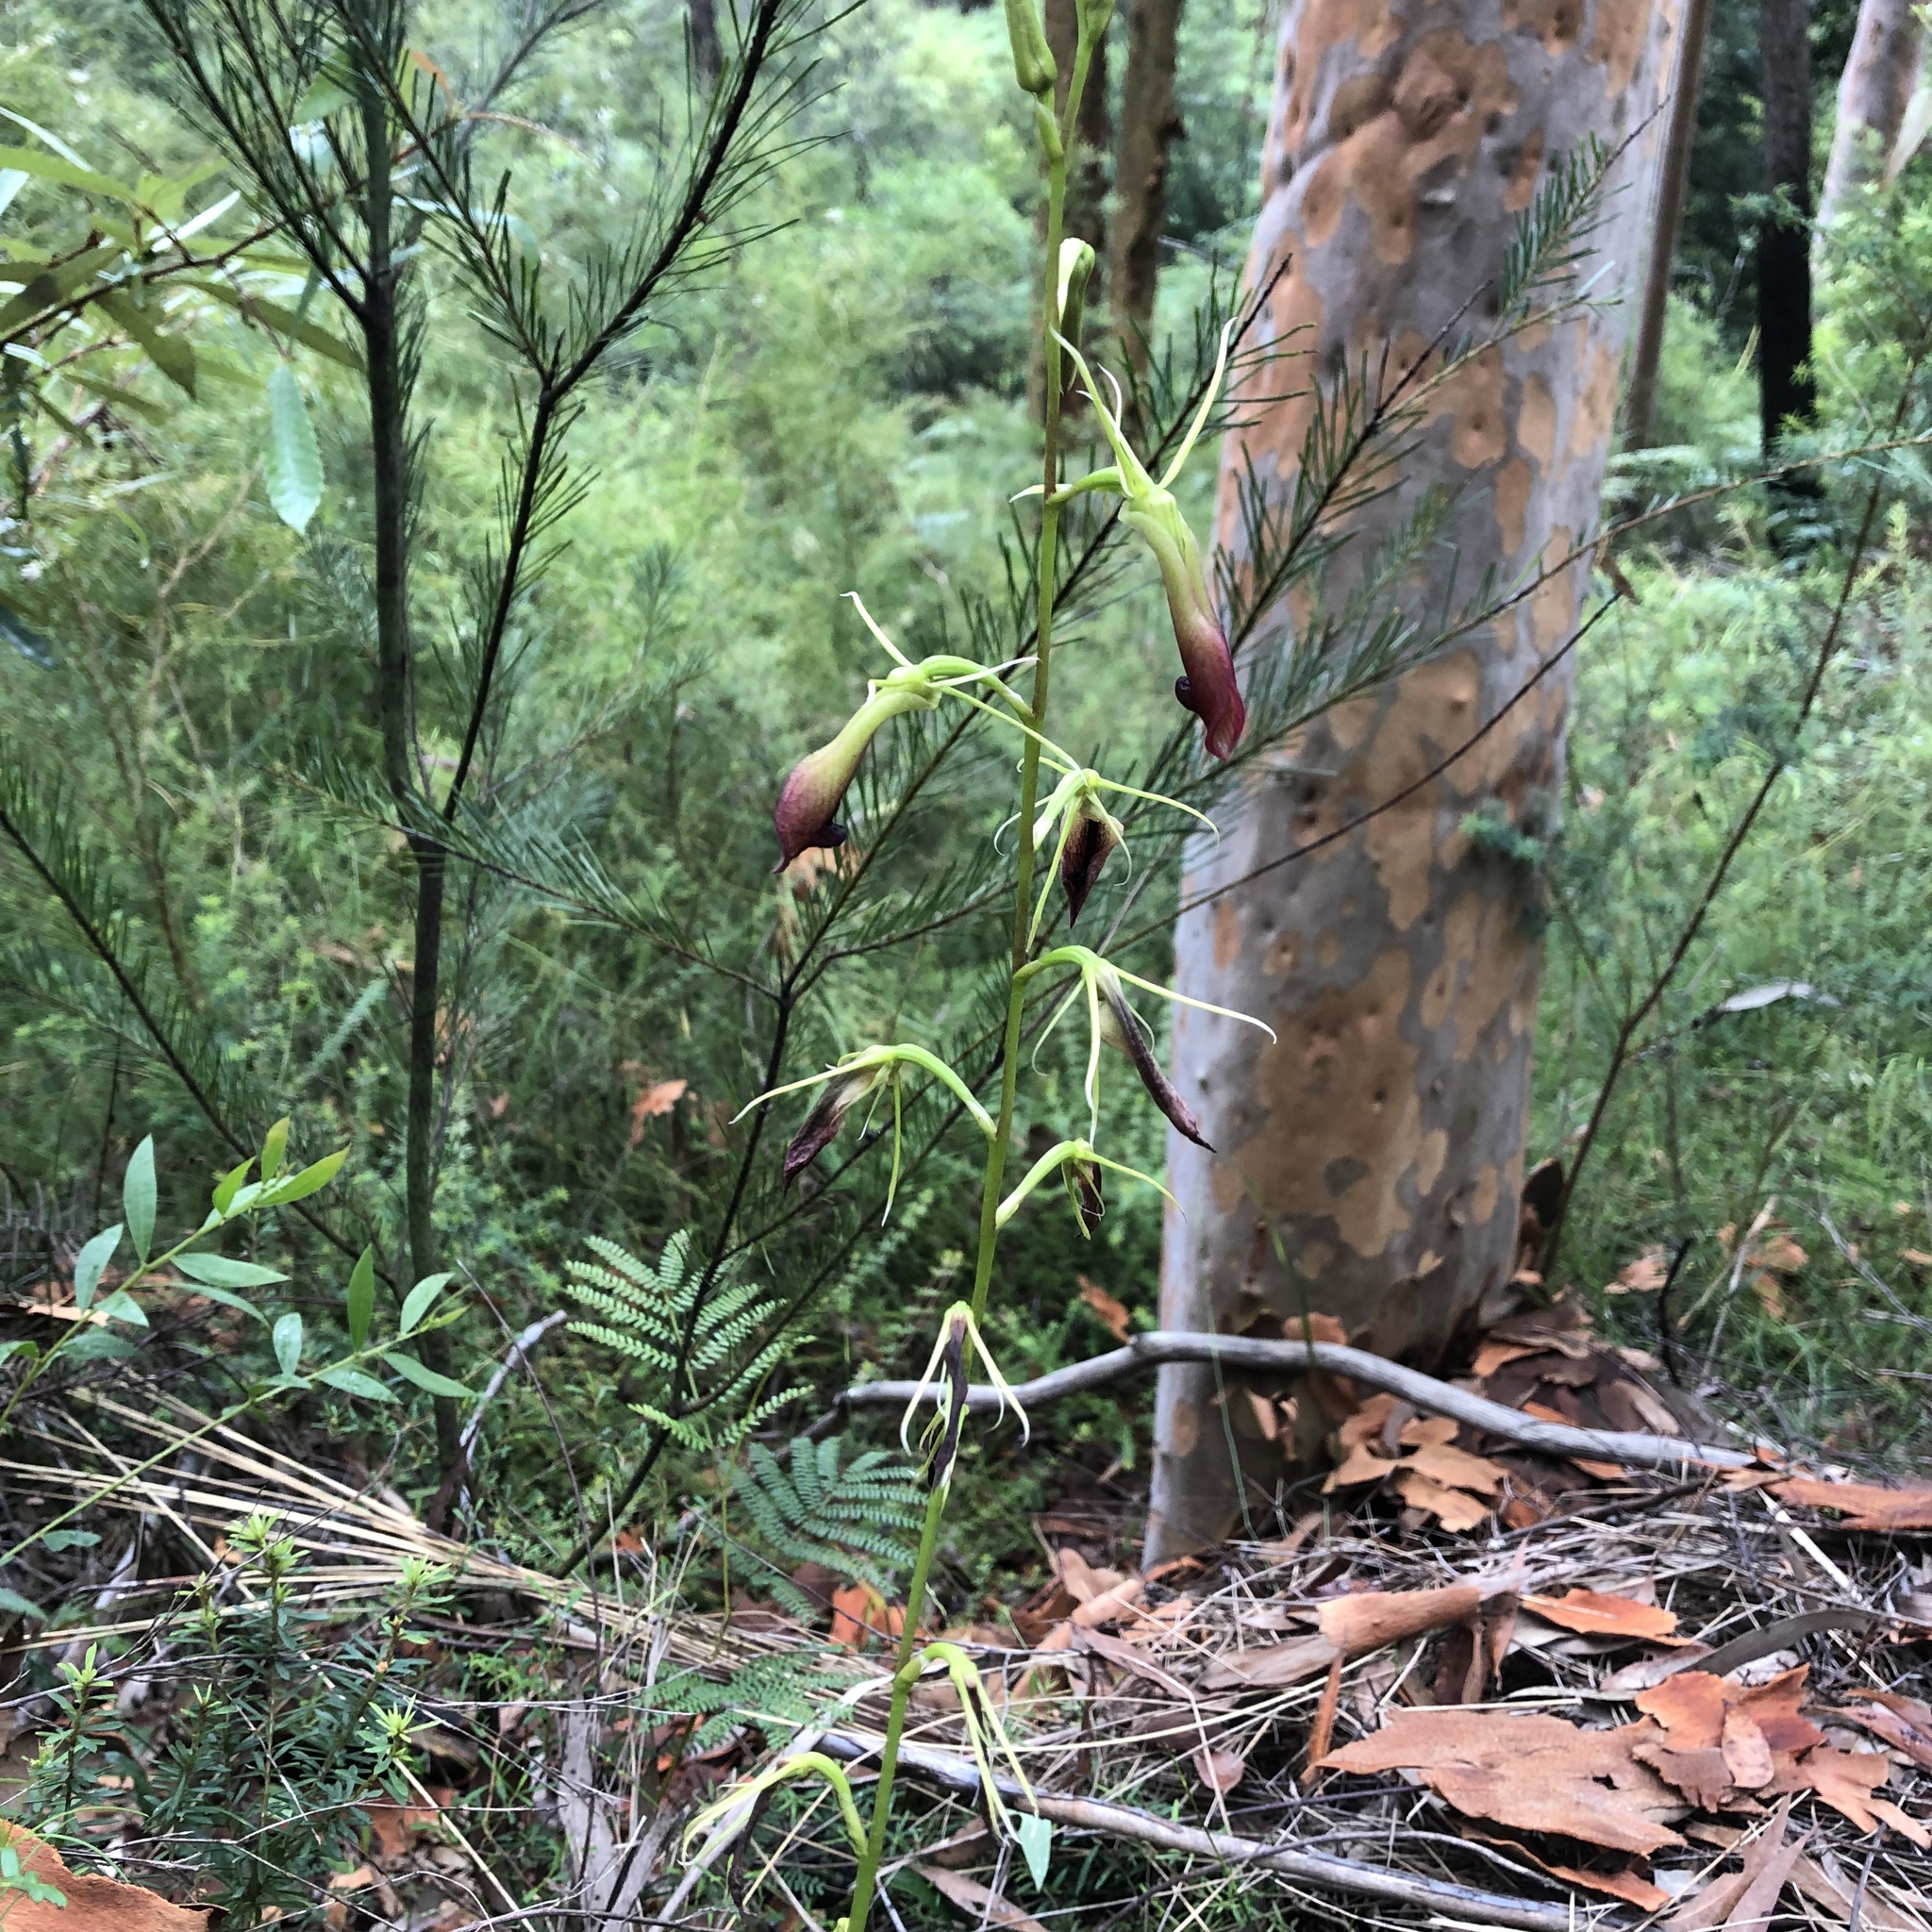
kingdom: Plantae
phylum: Tracheophyta
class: Liliopsida
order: Asparagales
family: Orchidaceae
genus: Cryptostylis
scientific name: Cryptostylis subulata
